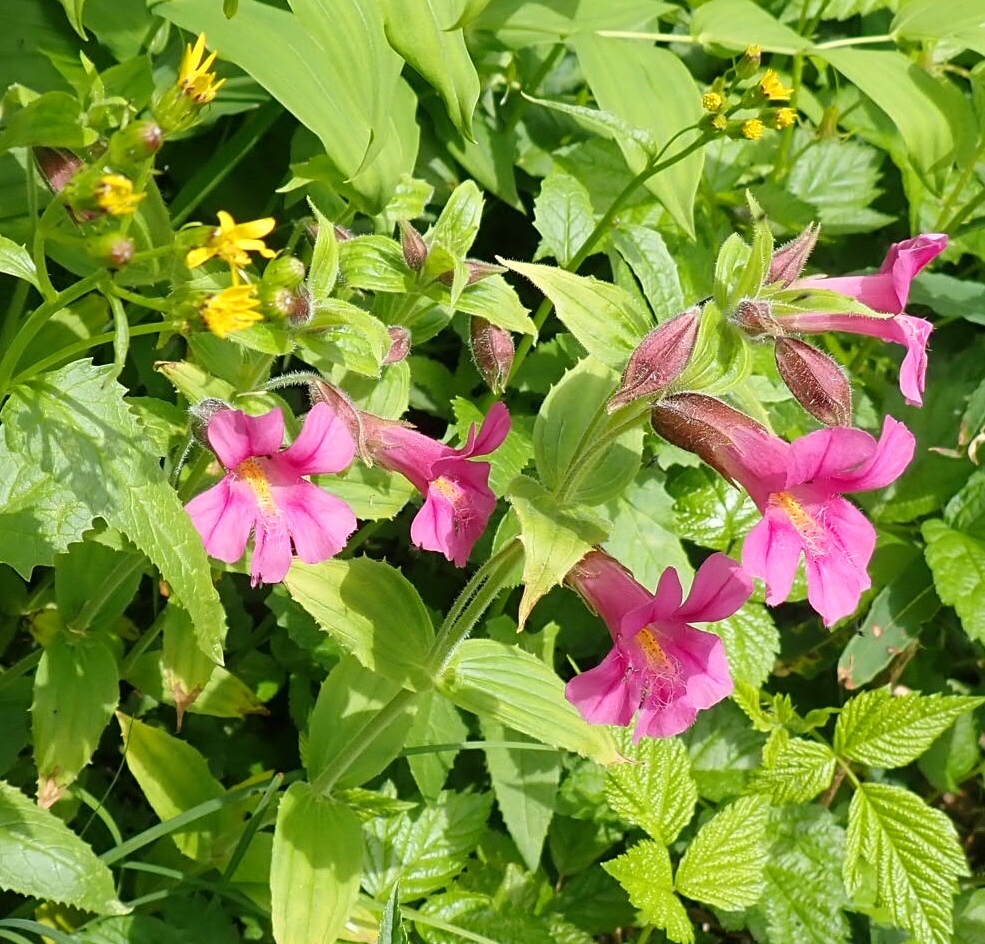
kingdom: Plantae
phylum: Tracheophyta
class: Magnoliopsida
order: Lamiales
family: Phrymaceae
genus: Erythranthe
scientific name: Erythranthe lewisii
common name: Lewis's monkey-flower
